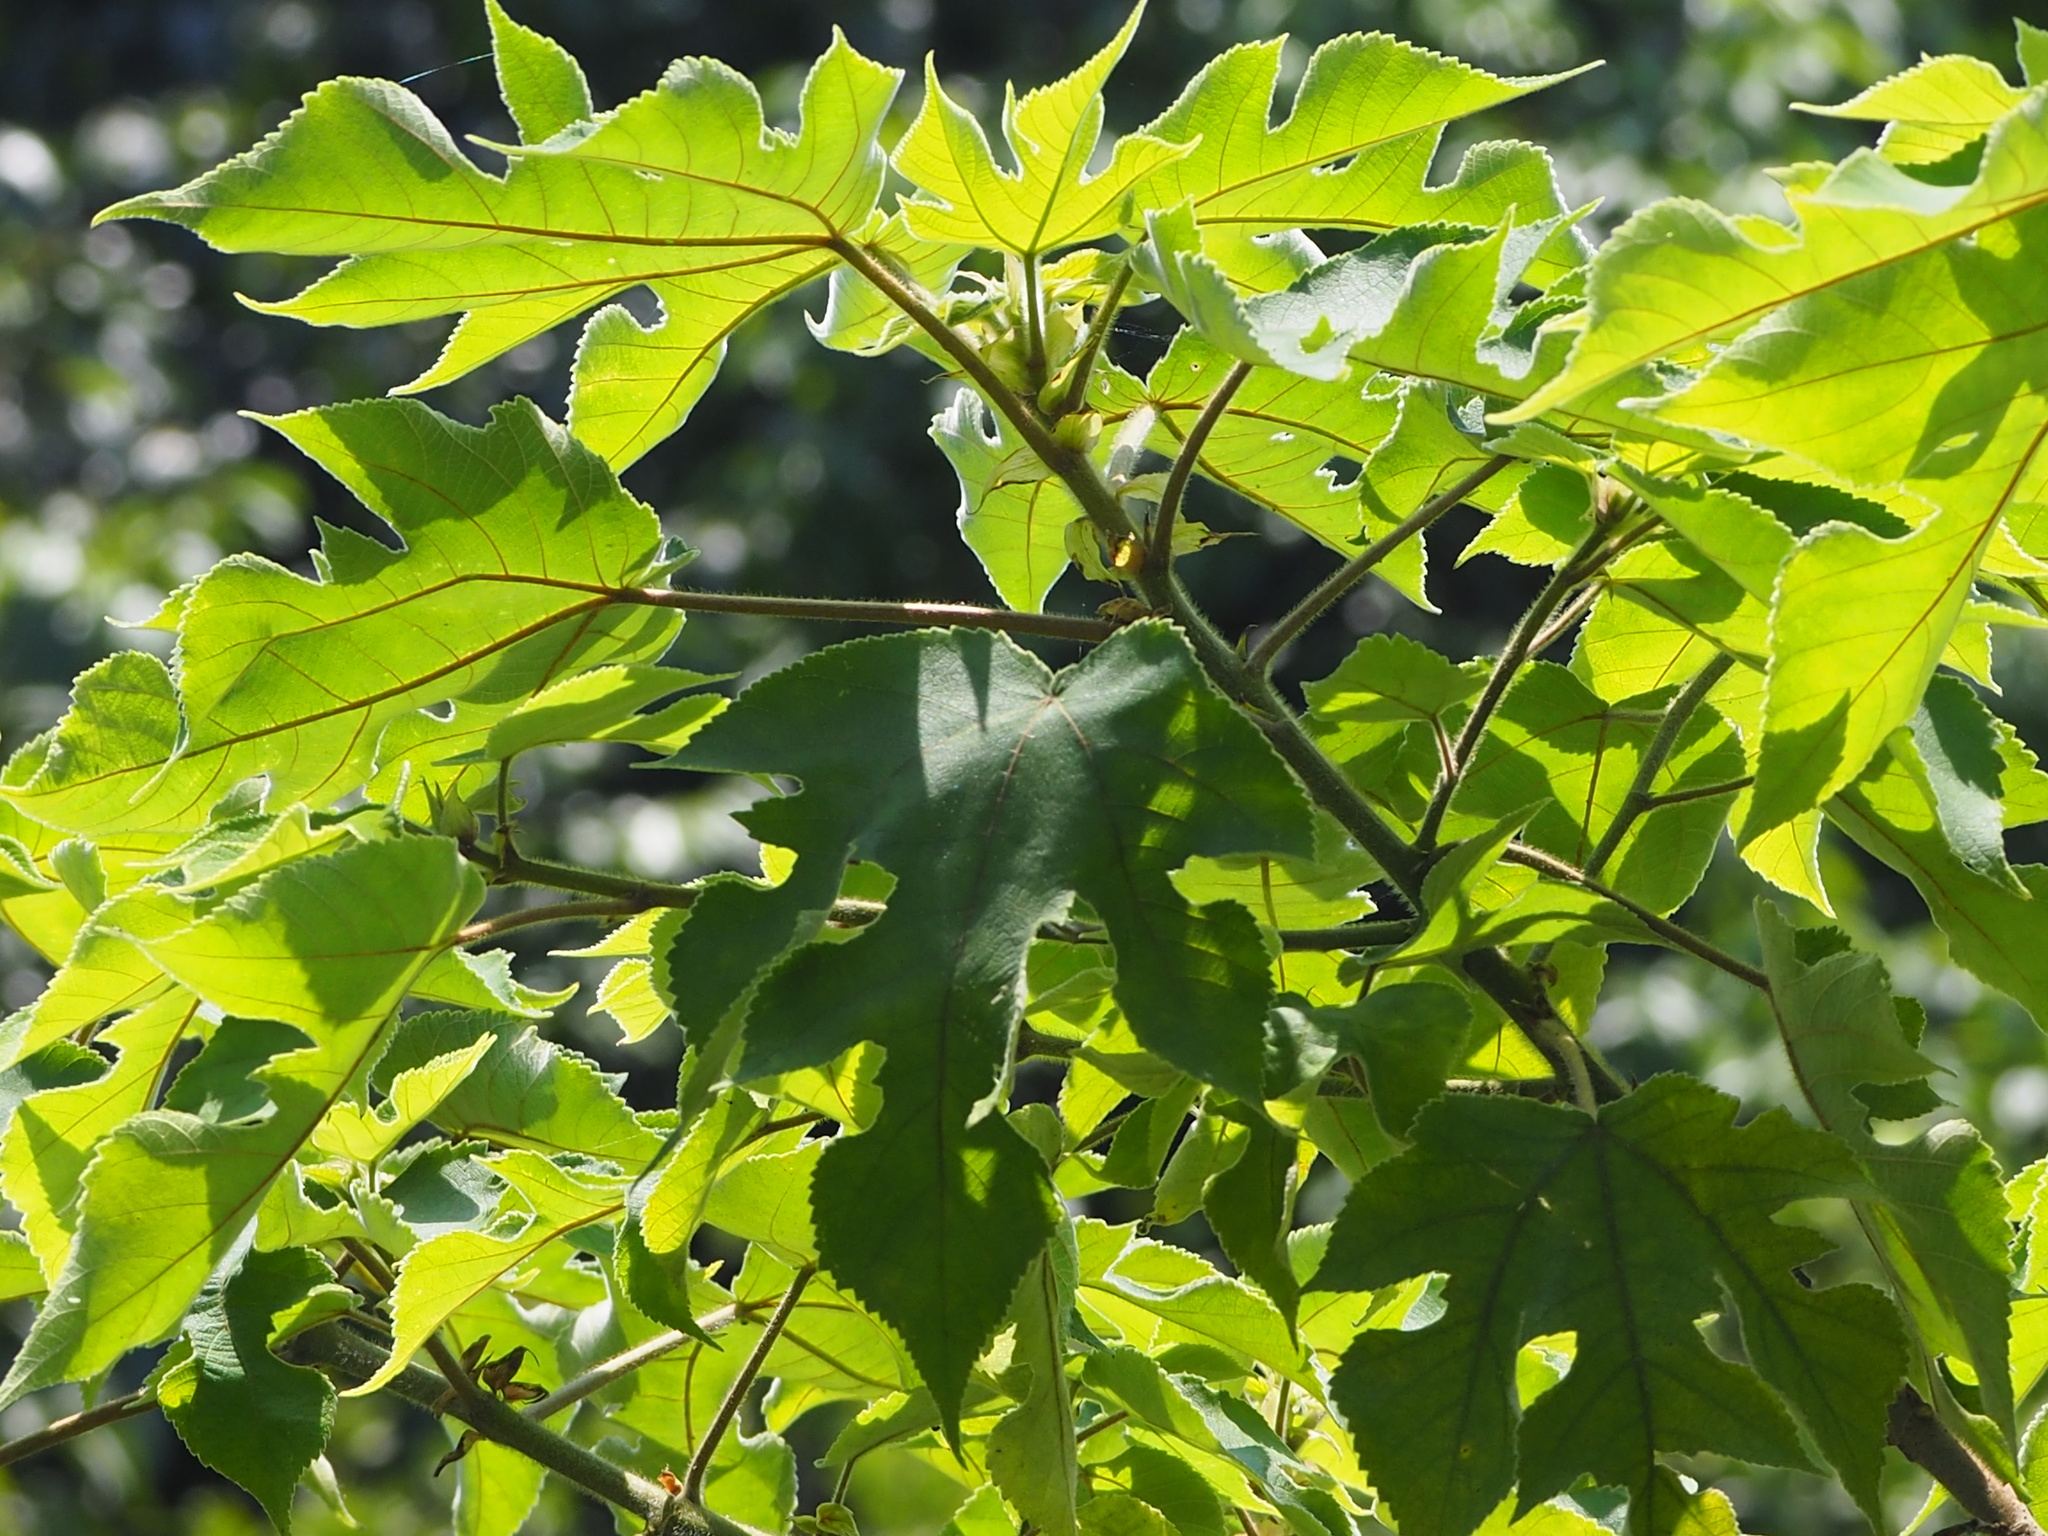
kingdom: Plantae
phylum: Tracheophyta
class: Magnoliopsida
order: Rosales
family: Moraceae
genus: Broussonetia
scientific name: Broussonetia papyrifera
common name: Paper mulberry
